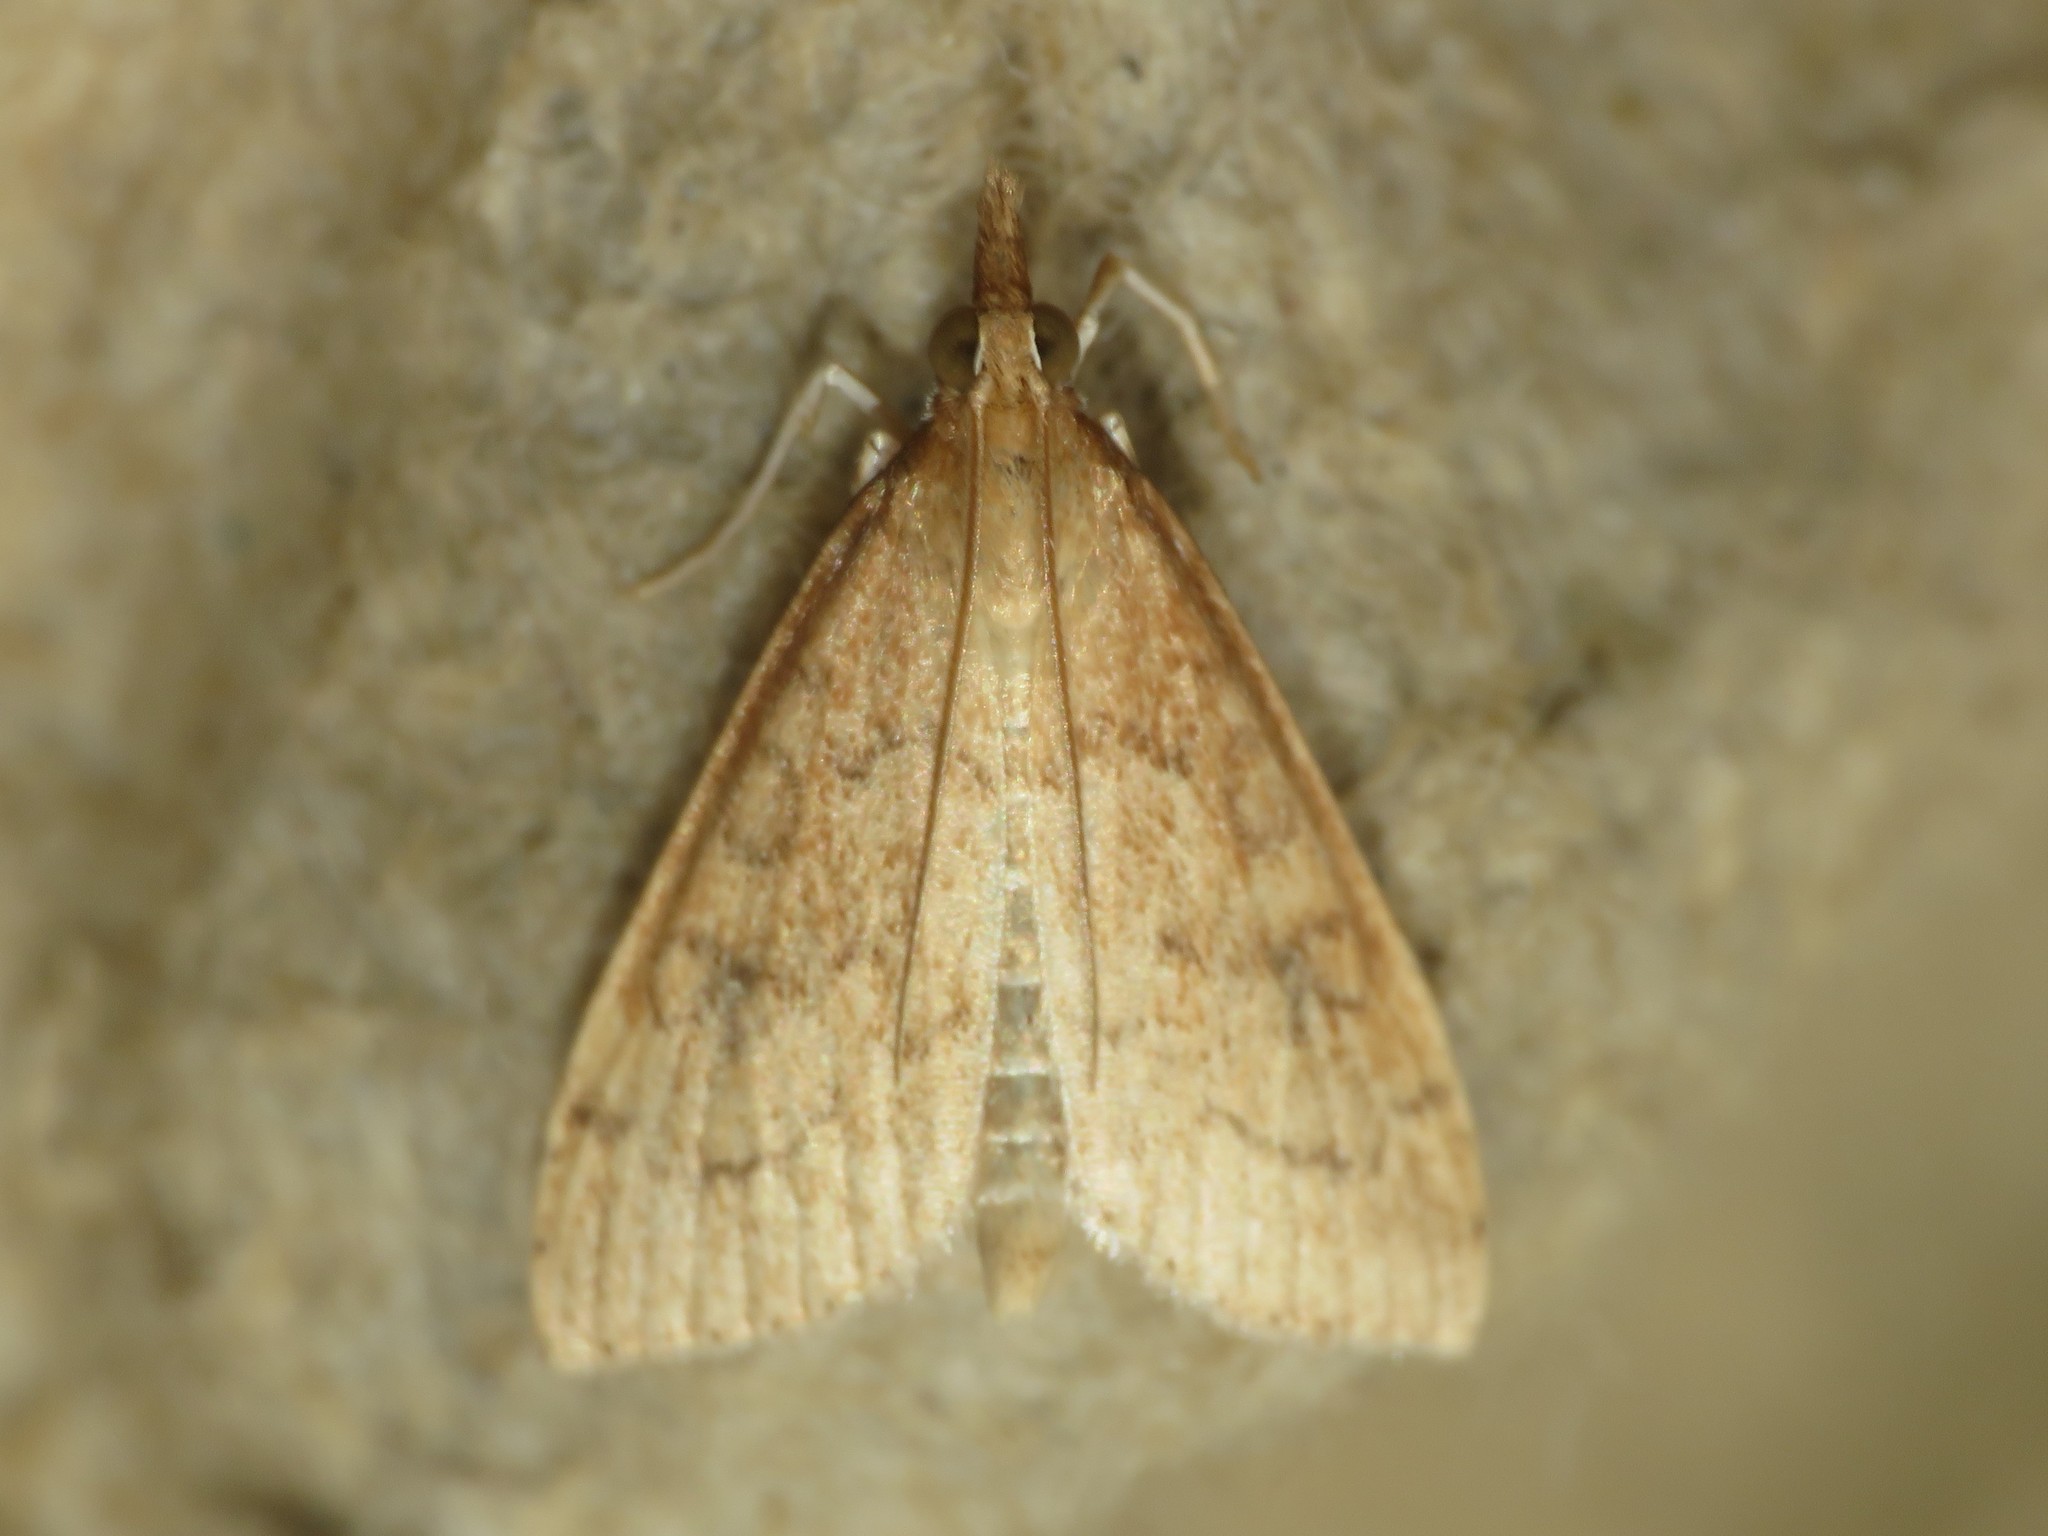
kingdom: Animalia
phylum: Arthropoda
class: Insecta
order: Lepidoptera
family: Crambidae
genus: Udea
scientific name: Udea rubigalis
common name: Celery leaftier moth
